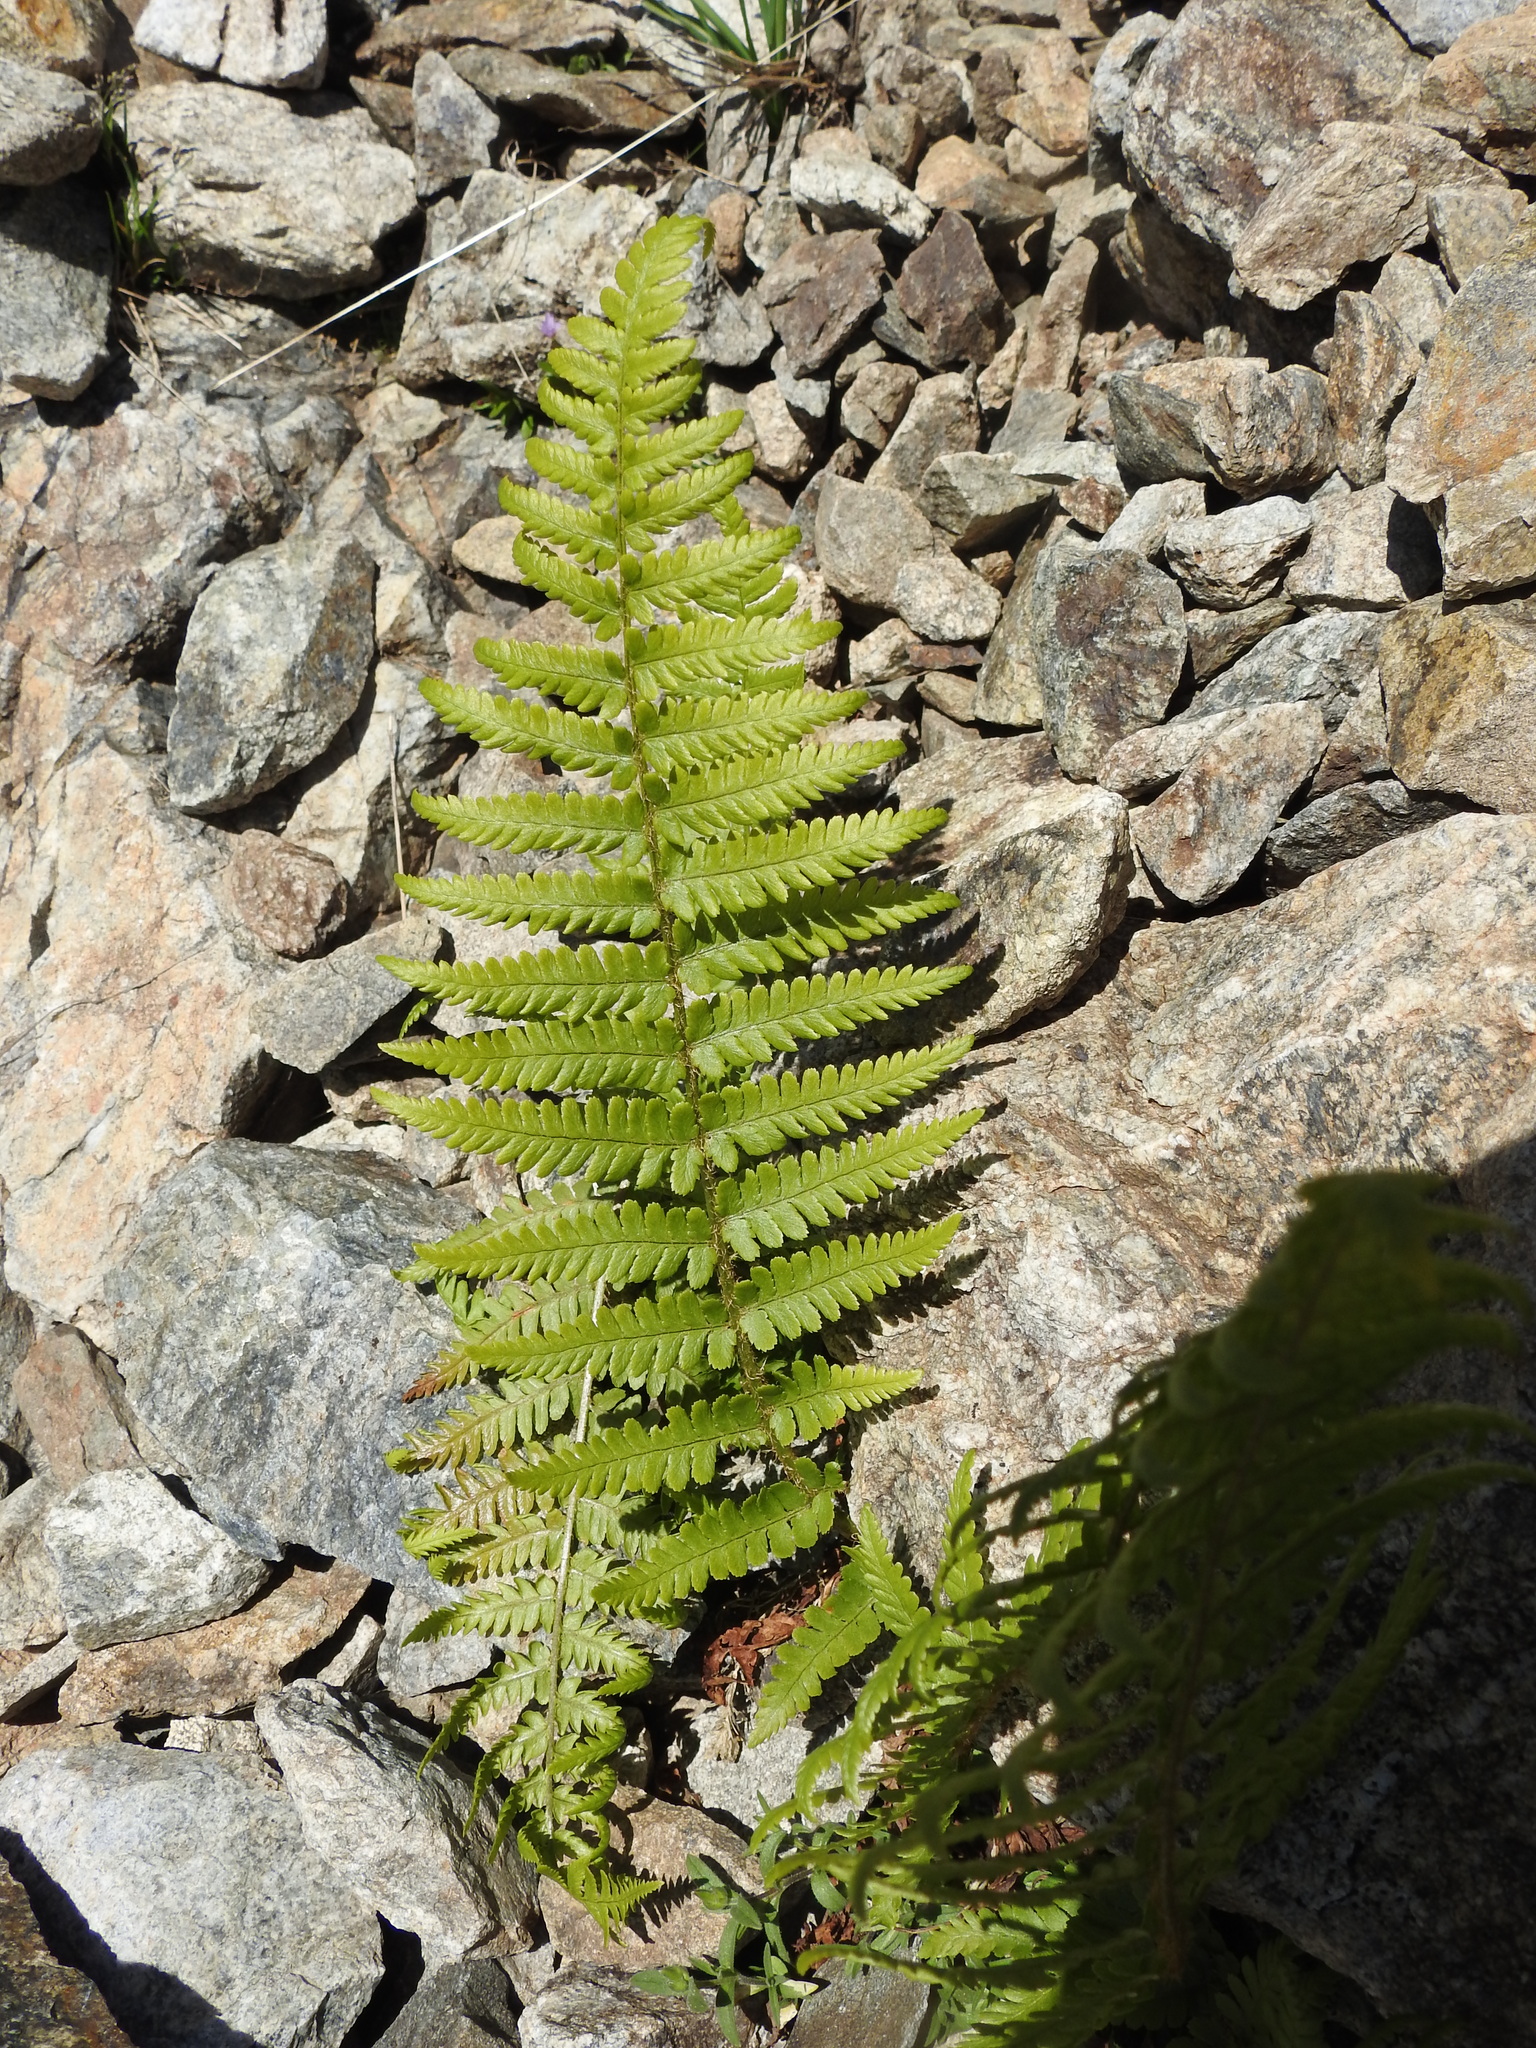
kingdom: Plantae
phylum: Tracheophyta
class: Polypodiopsida
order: Polypodiales
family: Dryopteridaceae
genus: Dryopteris
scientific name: Dryopteris filix-mas
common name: Male fern
